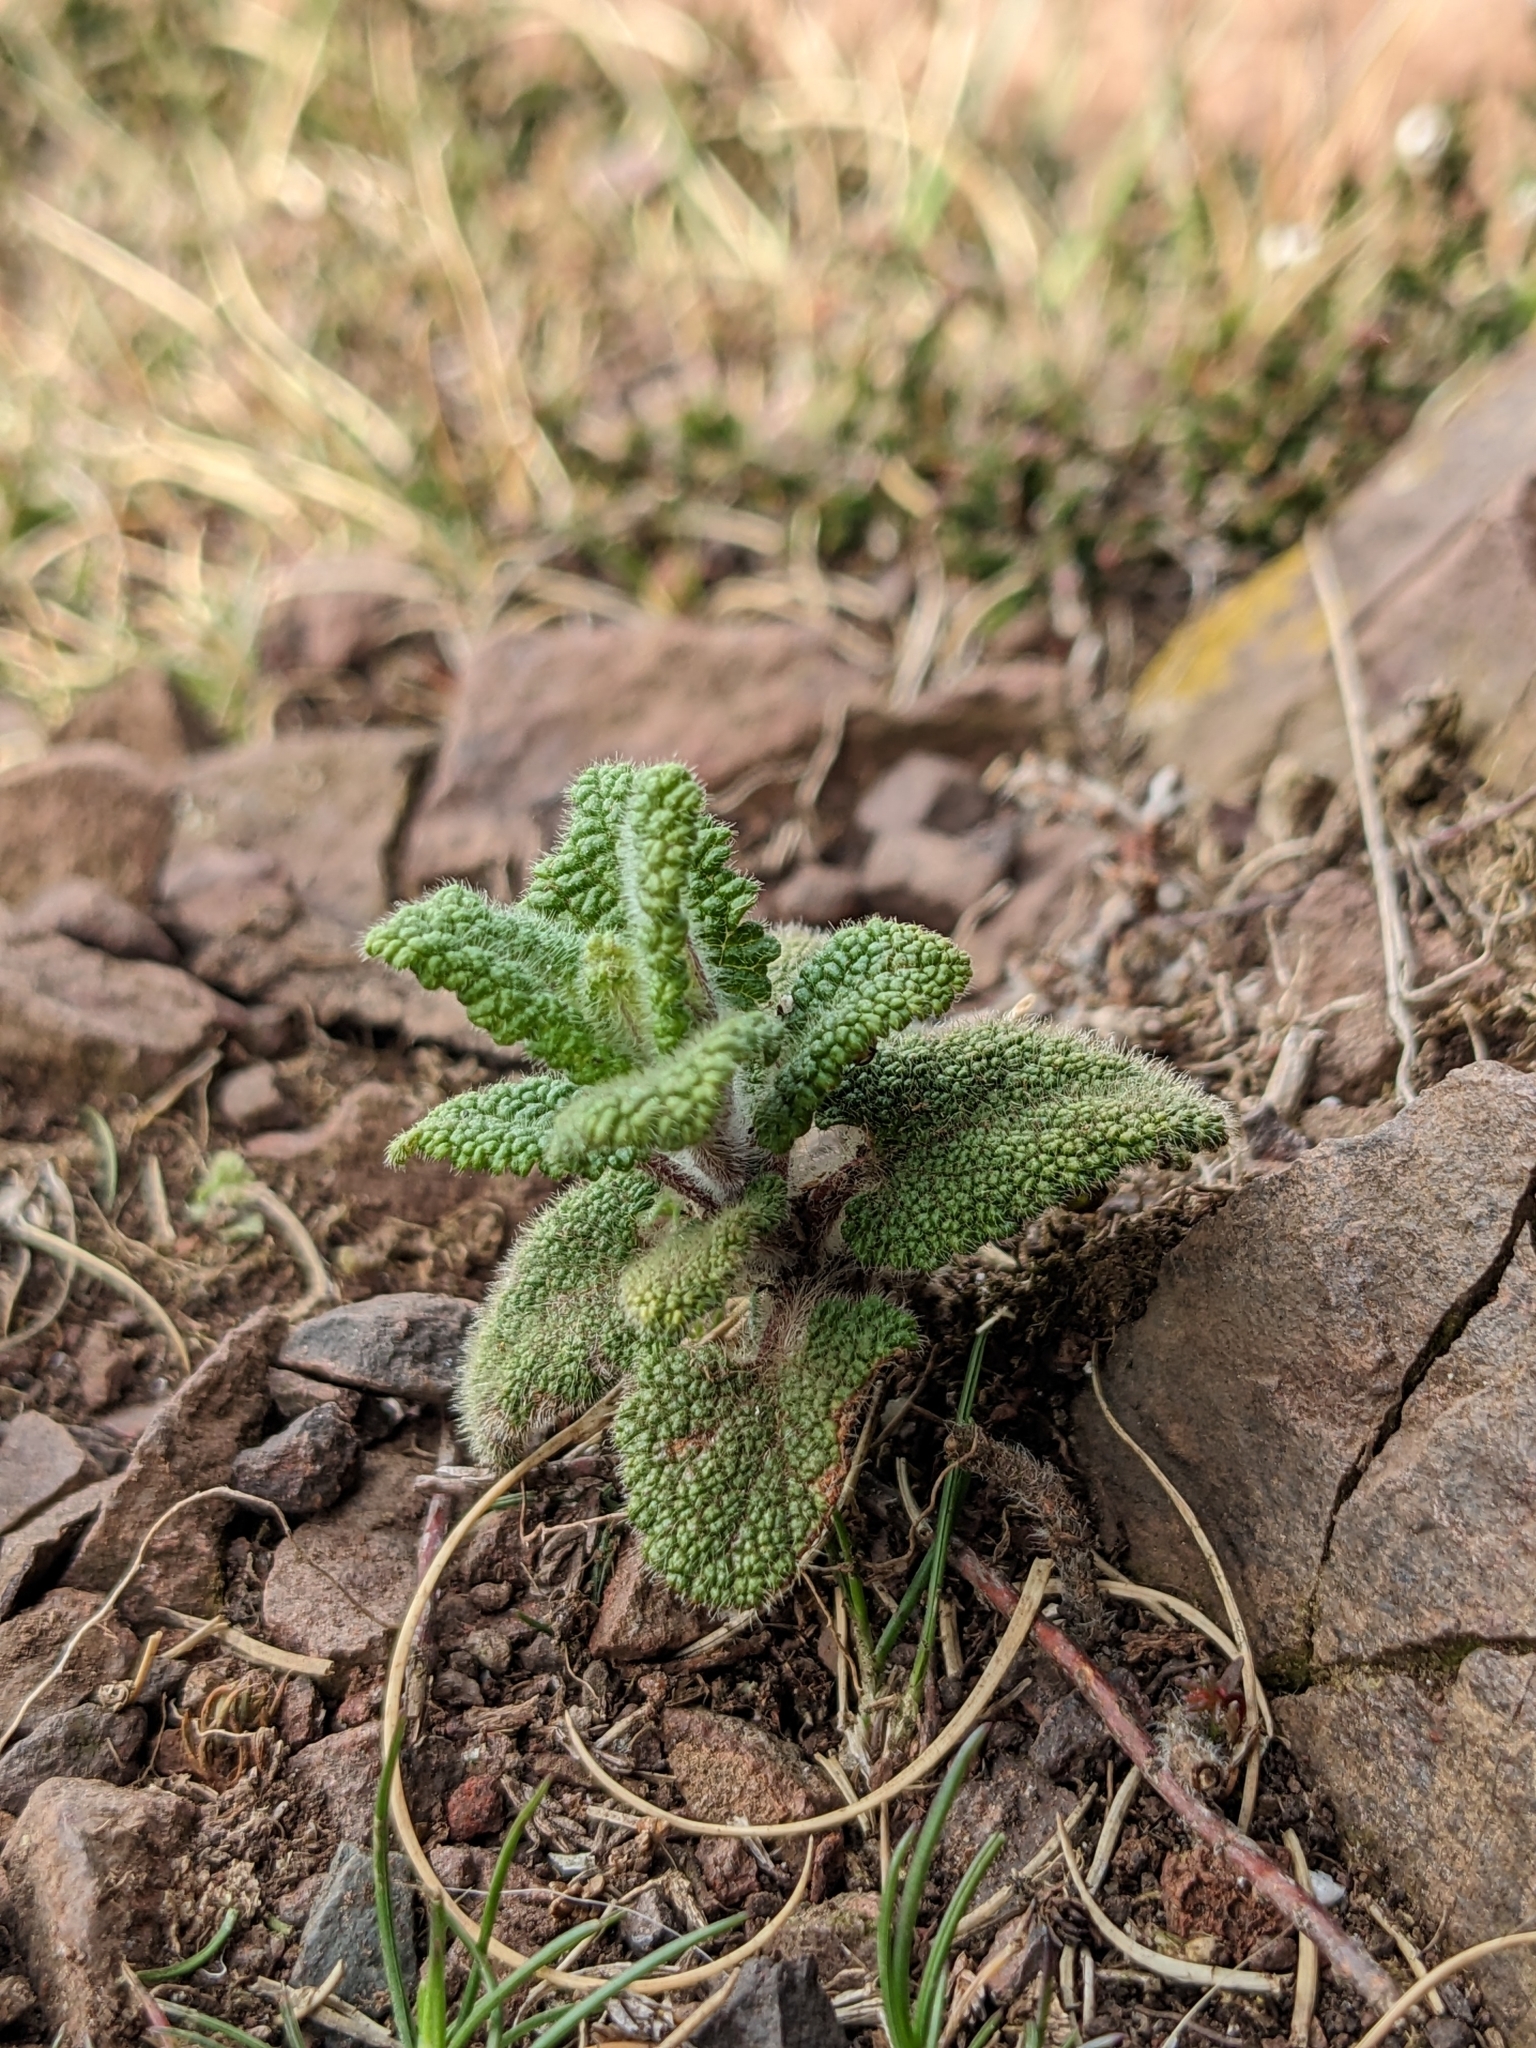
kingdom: Plantae
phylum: Tracheophyta
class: Magnoliopsida
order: Lamiales
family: Lamiaceae
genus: Teucrium
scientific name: Teucrium scorodonia
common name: Woodland germander
